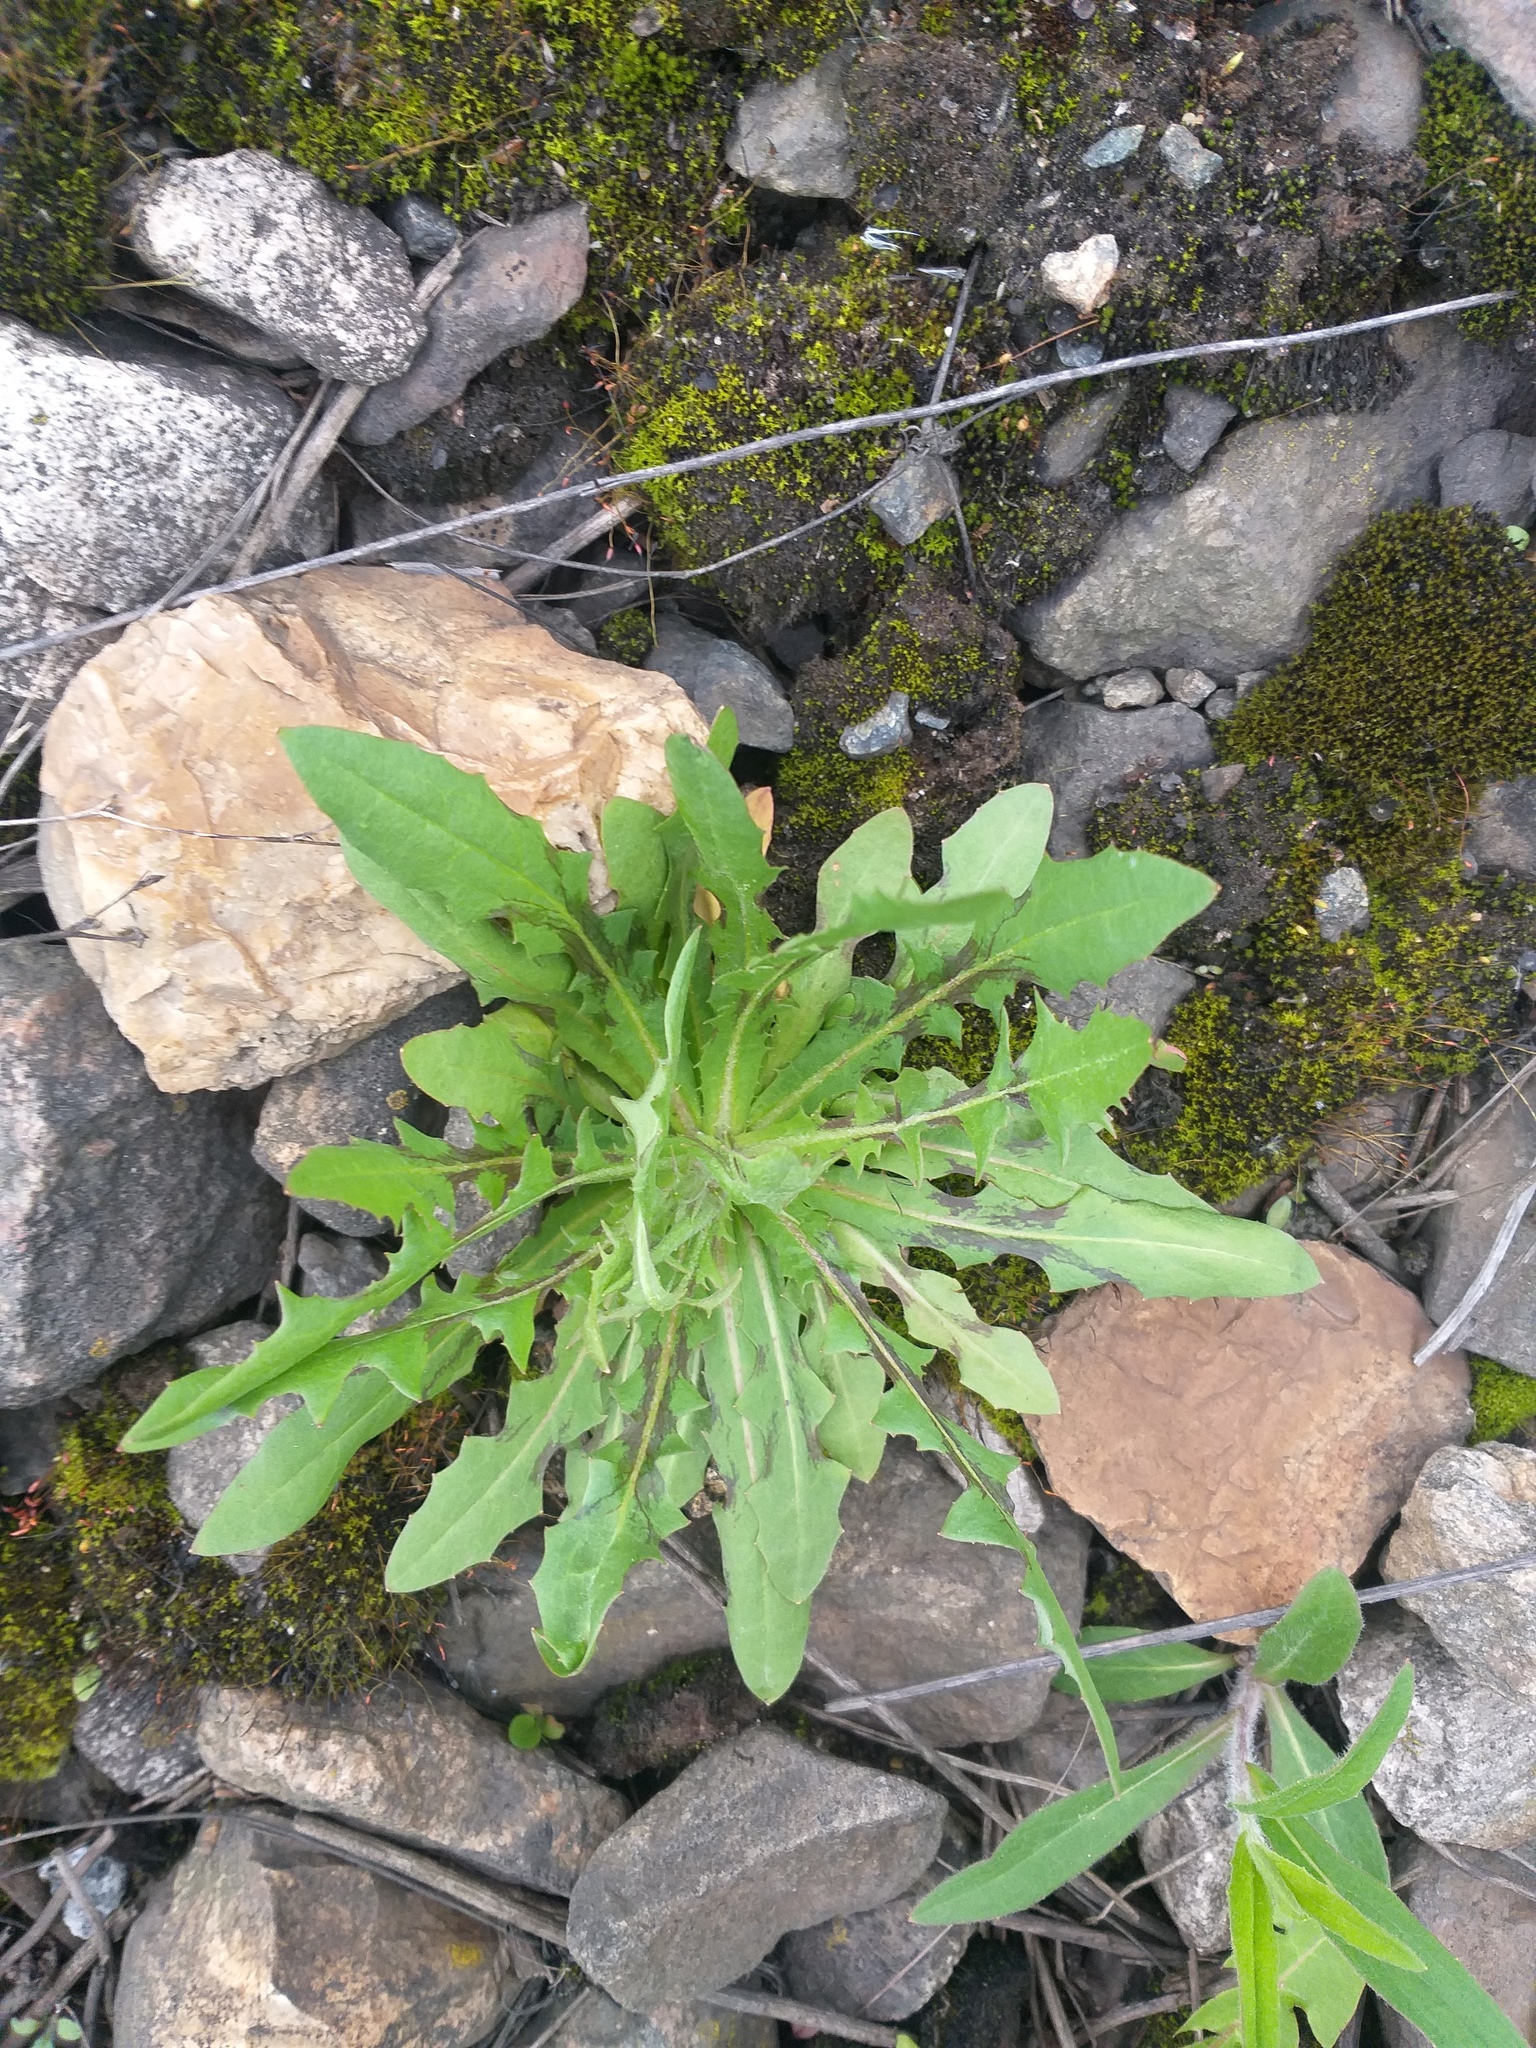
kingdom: Plantae
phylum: Tracheophyta
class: Magnoliopsida
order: Asterales
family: Asteraceae
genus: Crepis
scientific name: Crepis tectorum
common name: Narrow-leaved hawk's-beard
